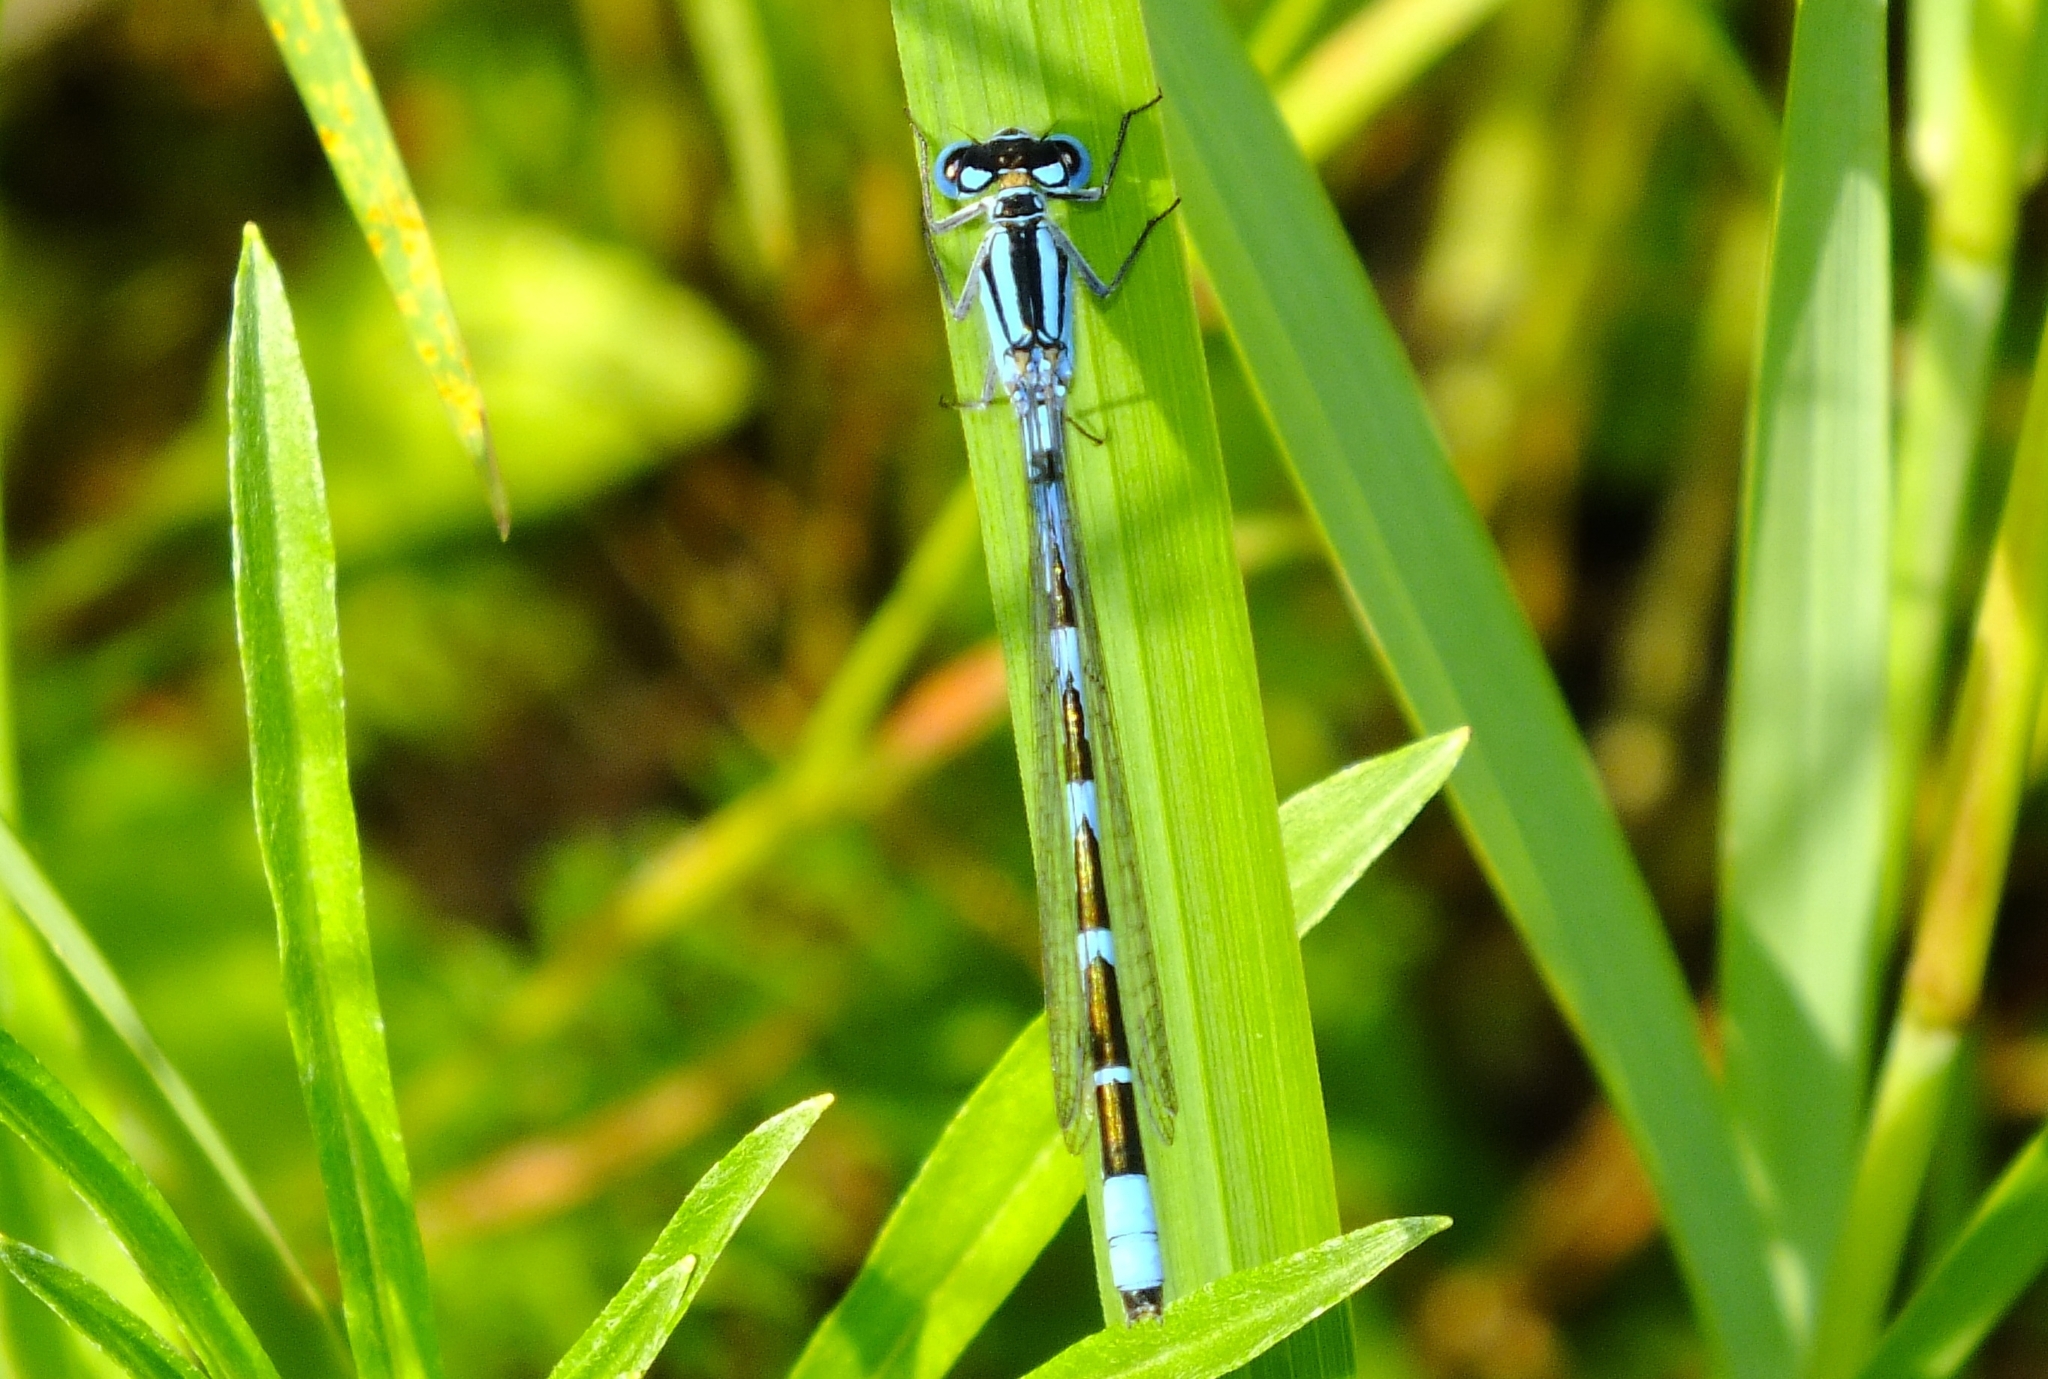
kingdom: Animalia
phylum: Arthropoda
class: Insecta
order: Odonata
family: Coenagrionidae
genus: Enallagma
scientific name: Enallagma cyathigerum
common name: Common blue damselfly
